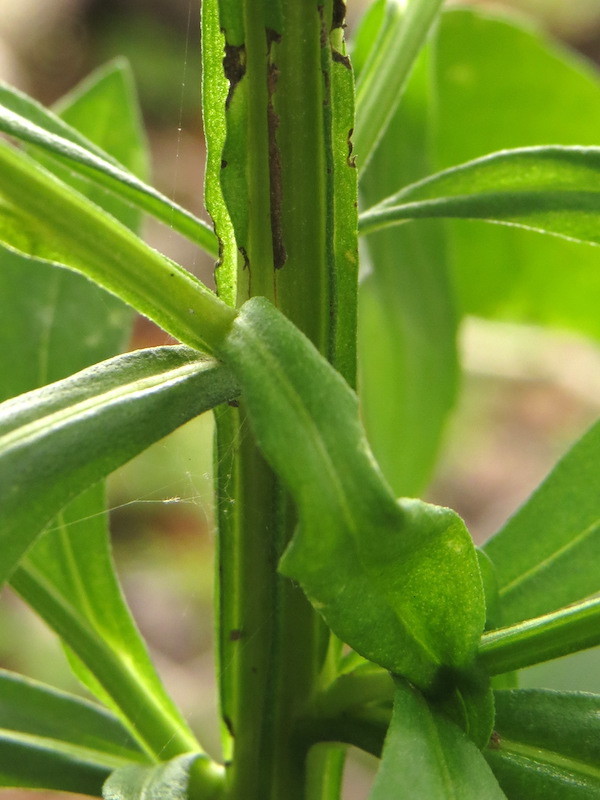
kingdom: Plantae
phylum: Tracheophyta
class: Magnoliopsida
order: Asterales
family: Asteraceae
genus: Helenium
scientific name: Helenium autumnale
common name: Sneezeweed
